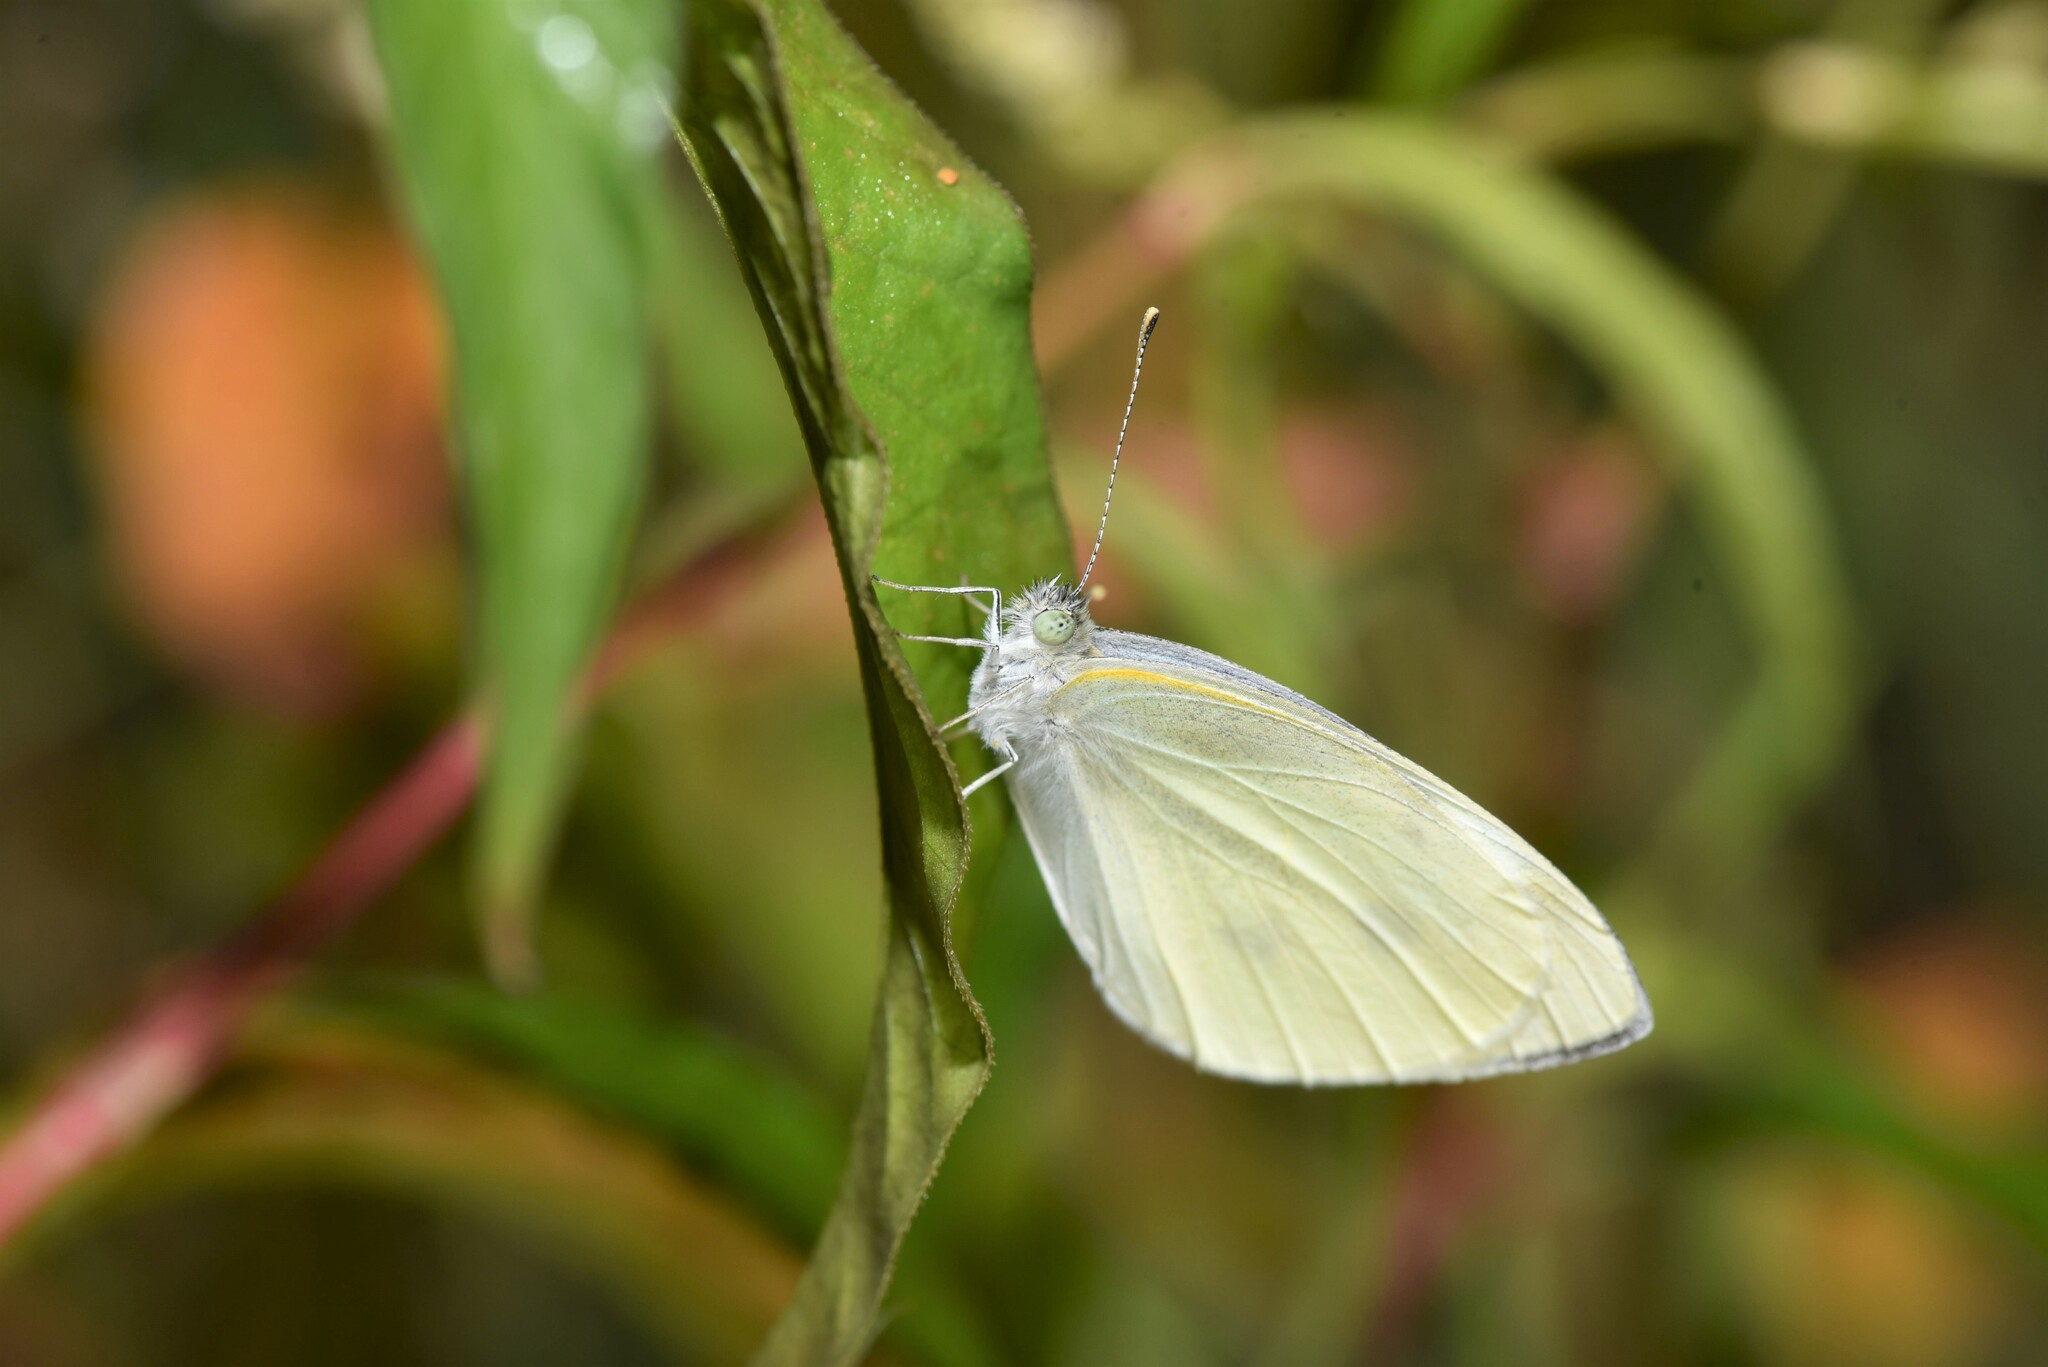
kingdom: Animalia
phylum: Arthropoda
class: Insecta
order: Lepidoptera
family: Pieridae
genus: Pieris
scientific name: Pieris rapae
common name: Small white
